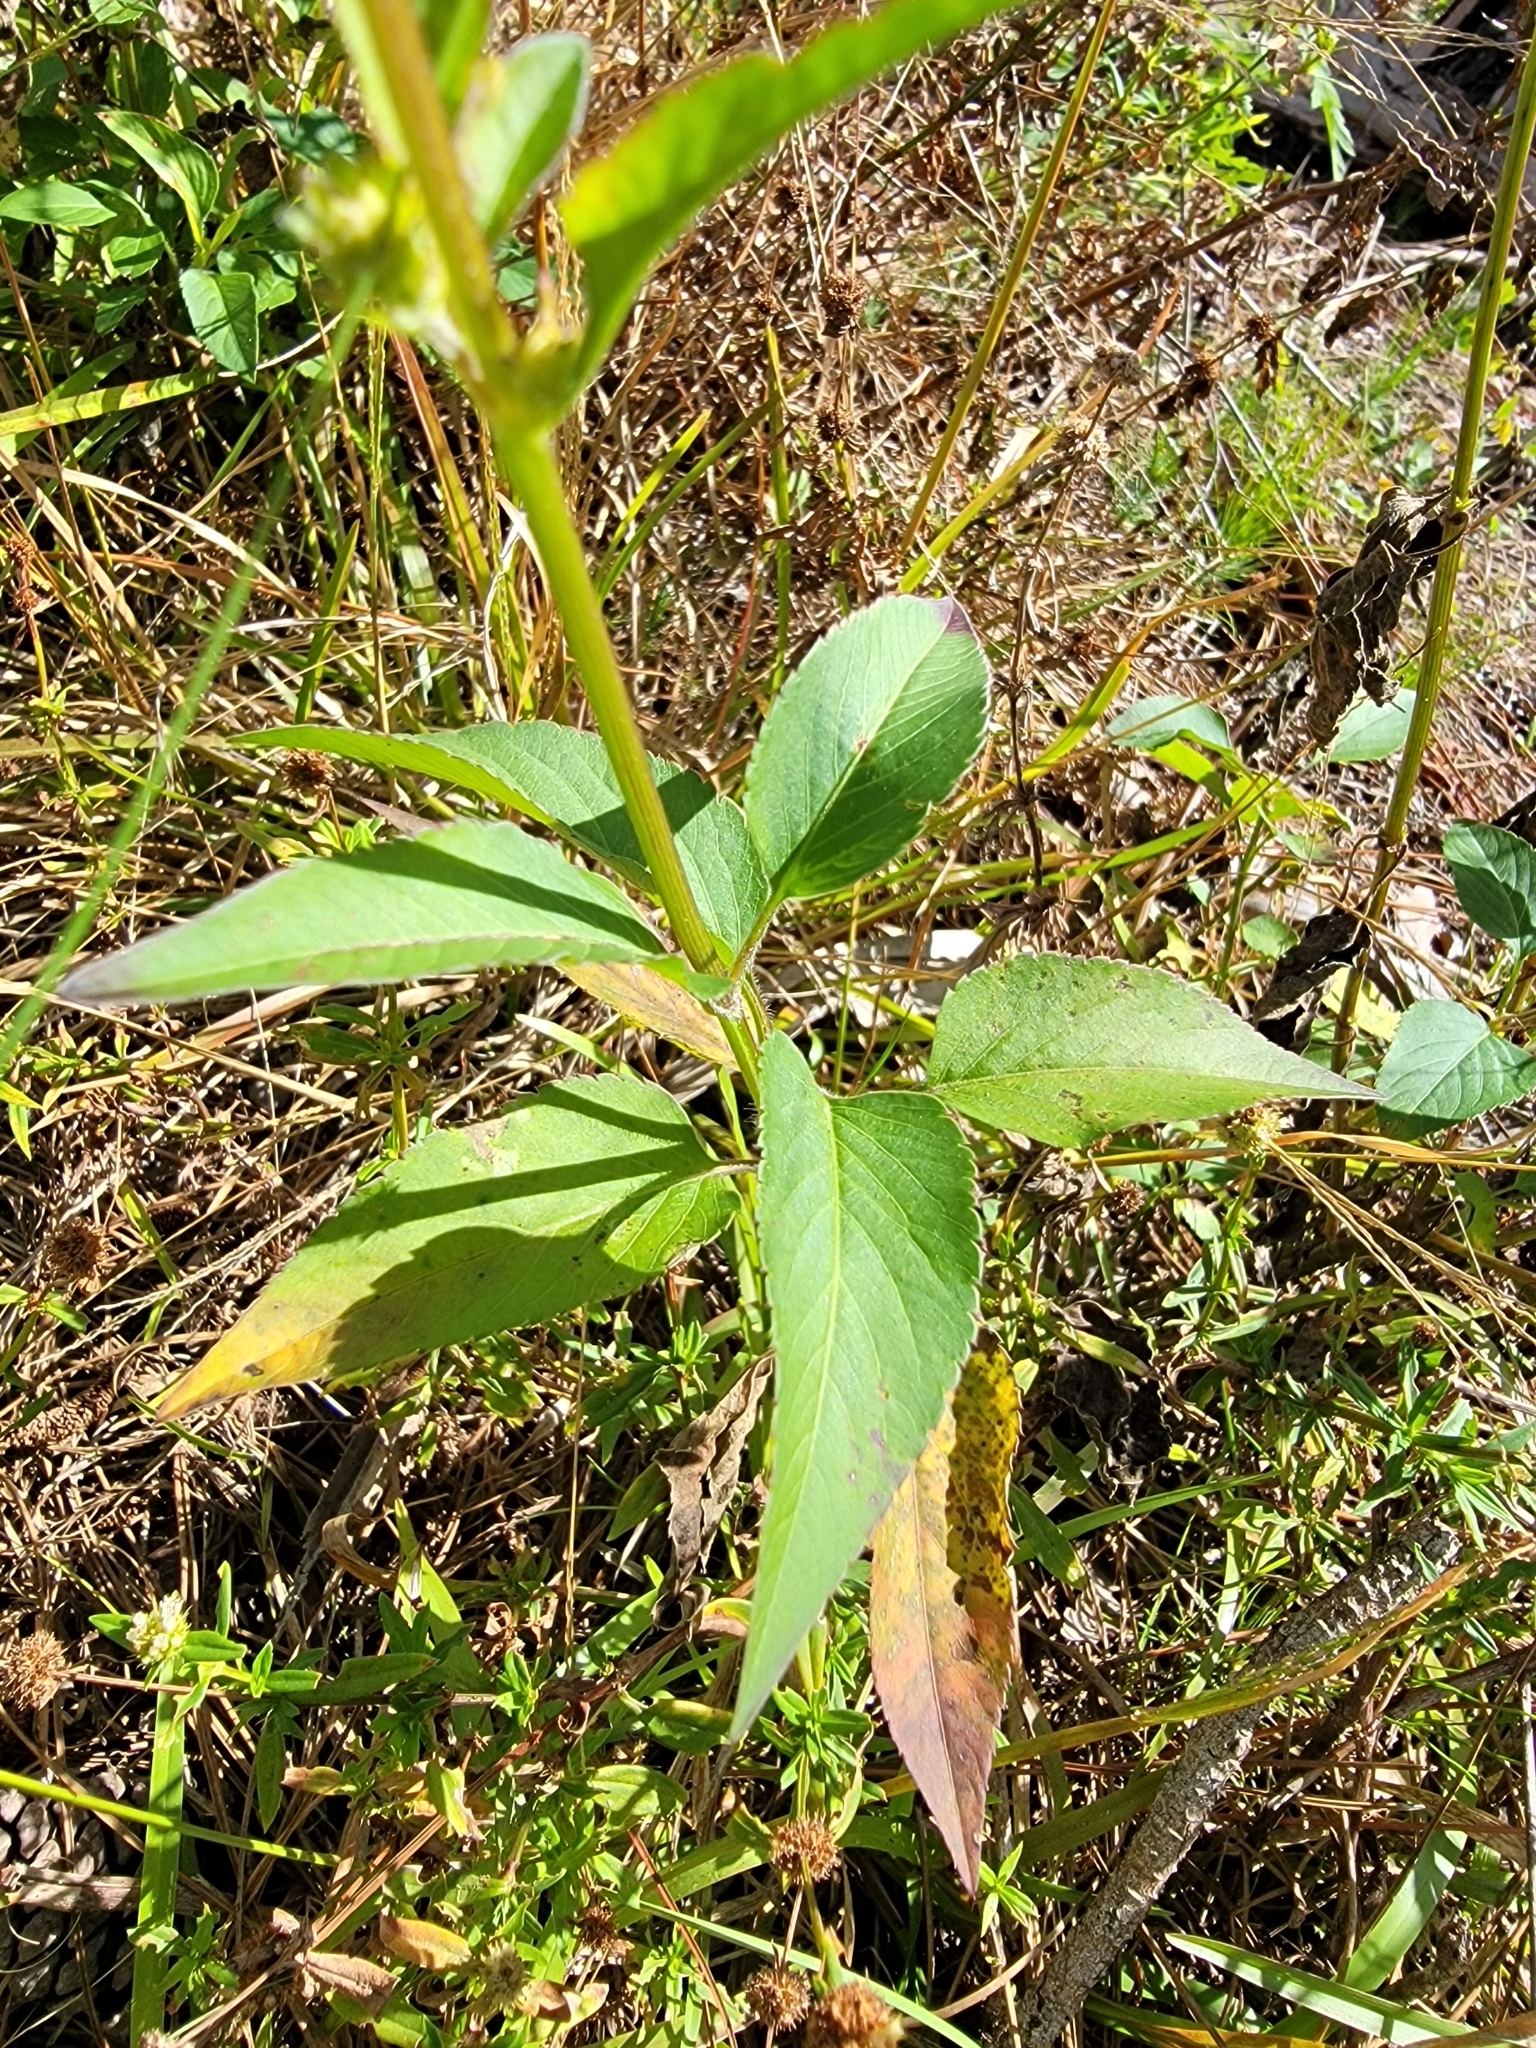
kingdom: Plantae
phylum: Tracheophyta
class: Magnoliopsida
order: Asterales
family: Asteraceae
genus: Bidens
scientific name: Bidens alba
